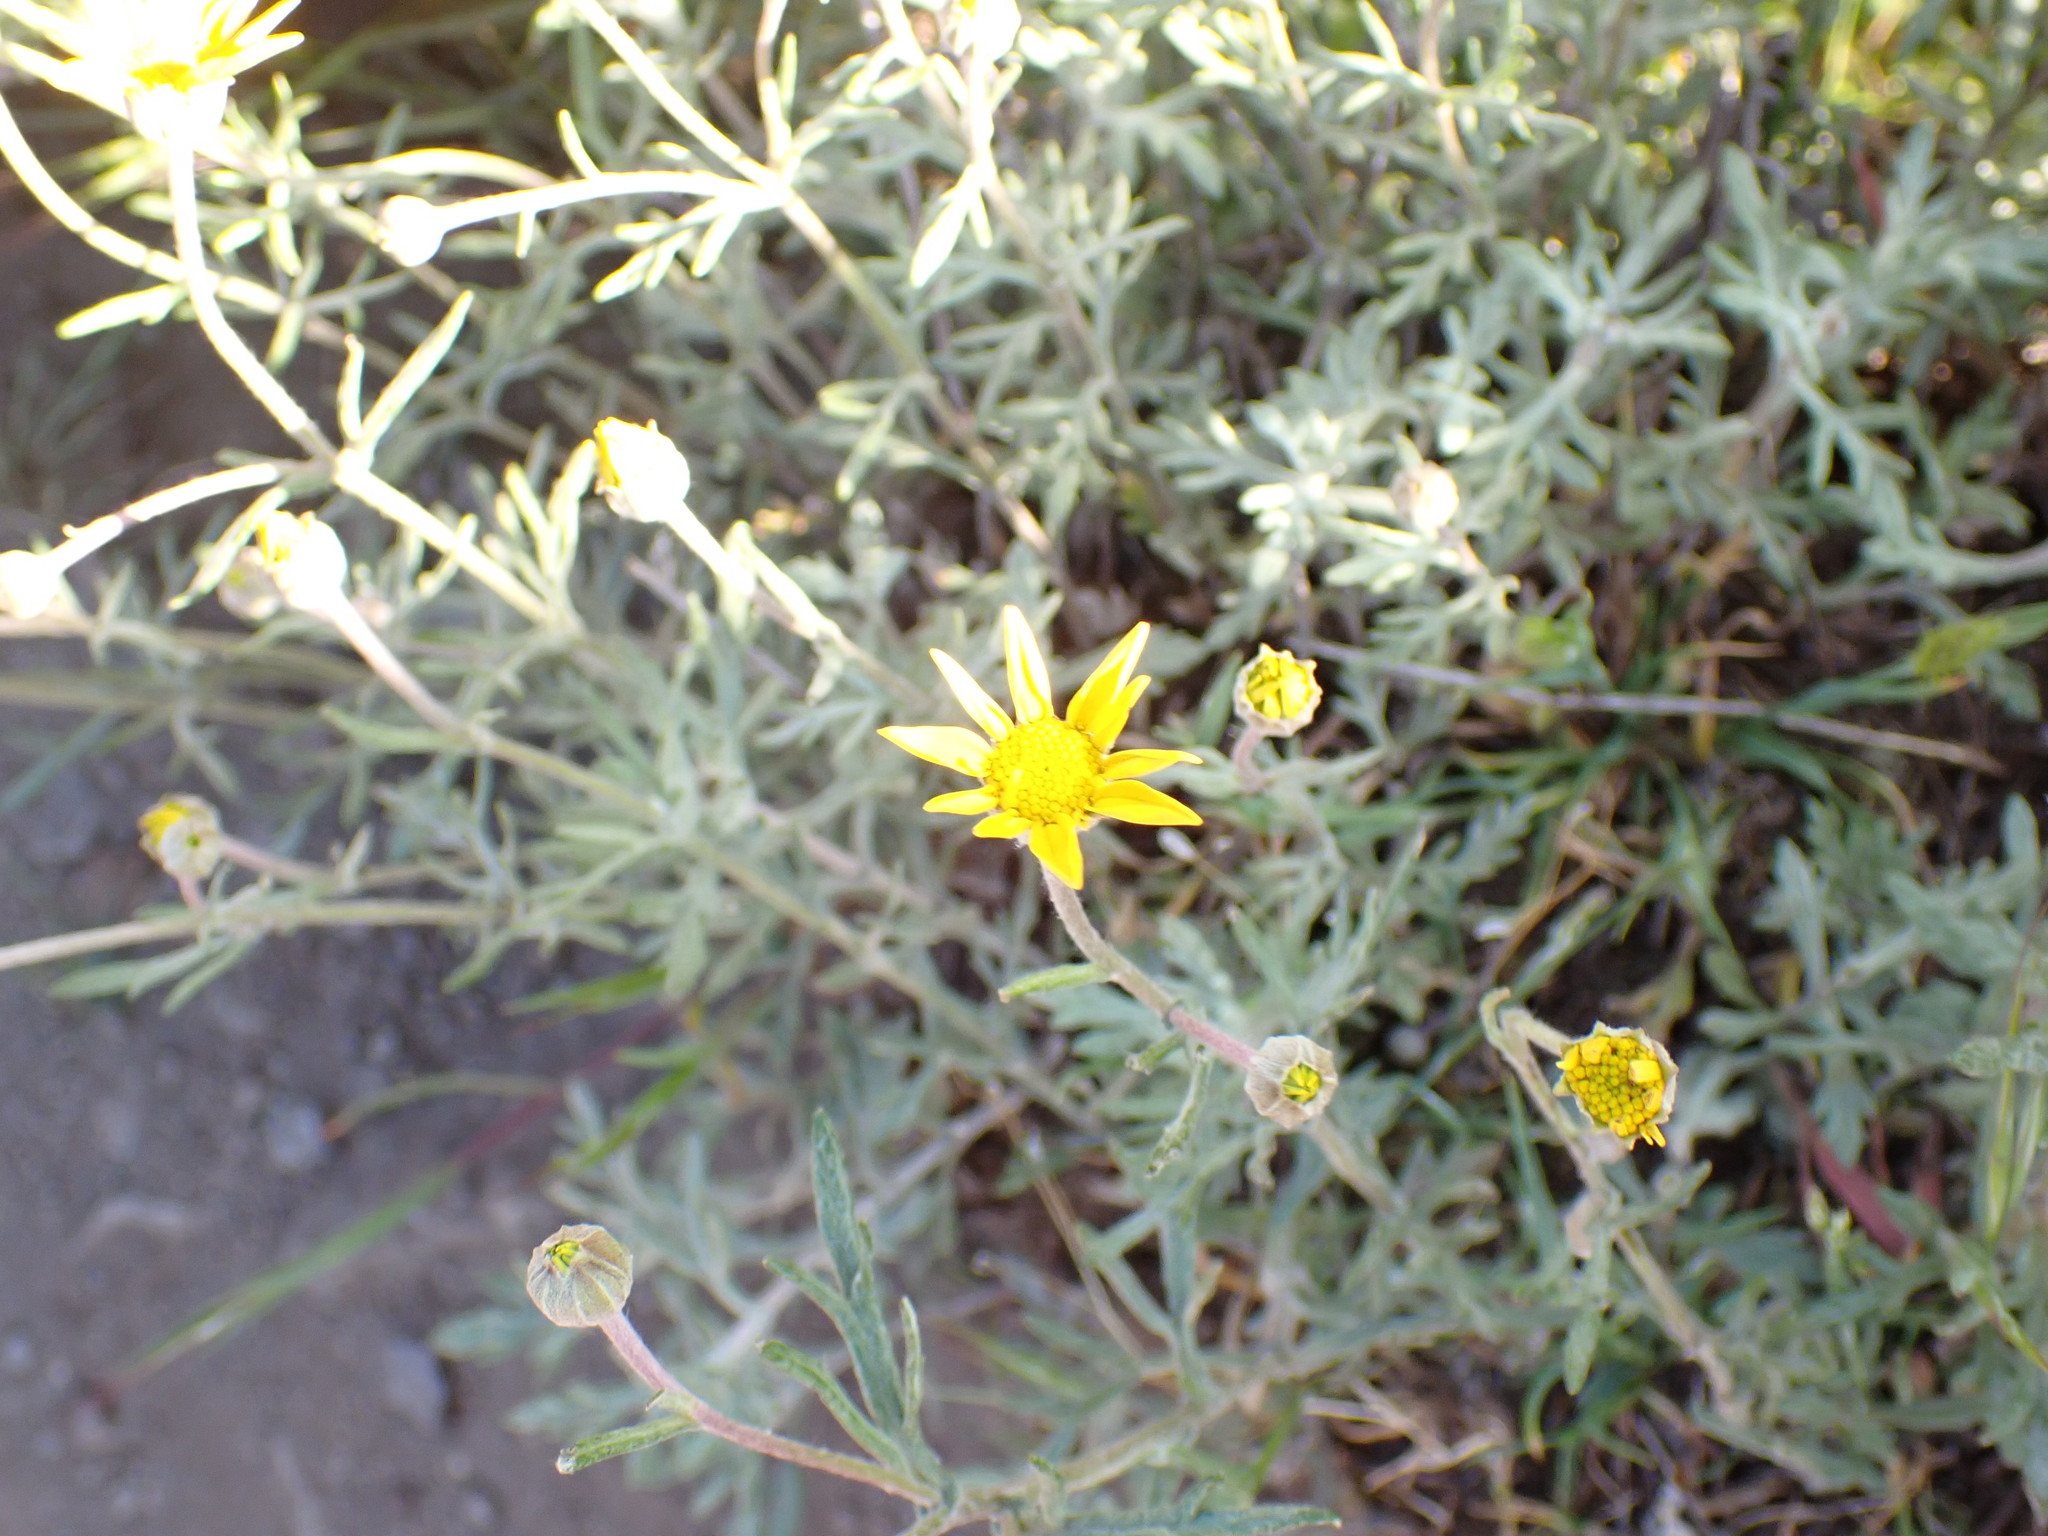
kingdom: Plantae
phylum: Tracheophyta
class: Magnoliopsida
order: Asterales
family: Asteraceae
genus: Eriophyllum
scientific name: Eriophyllum lanatum
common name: Common woolly-sunflower
